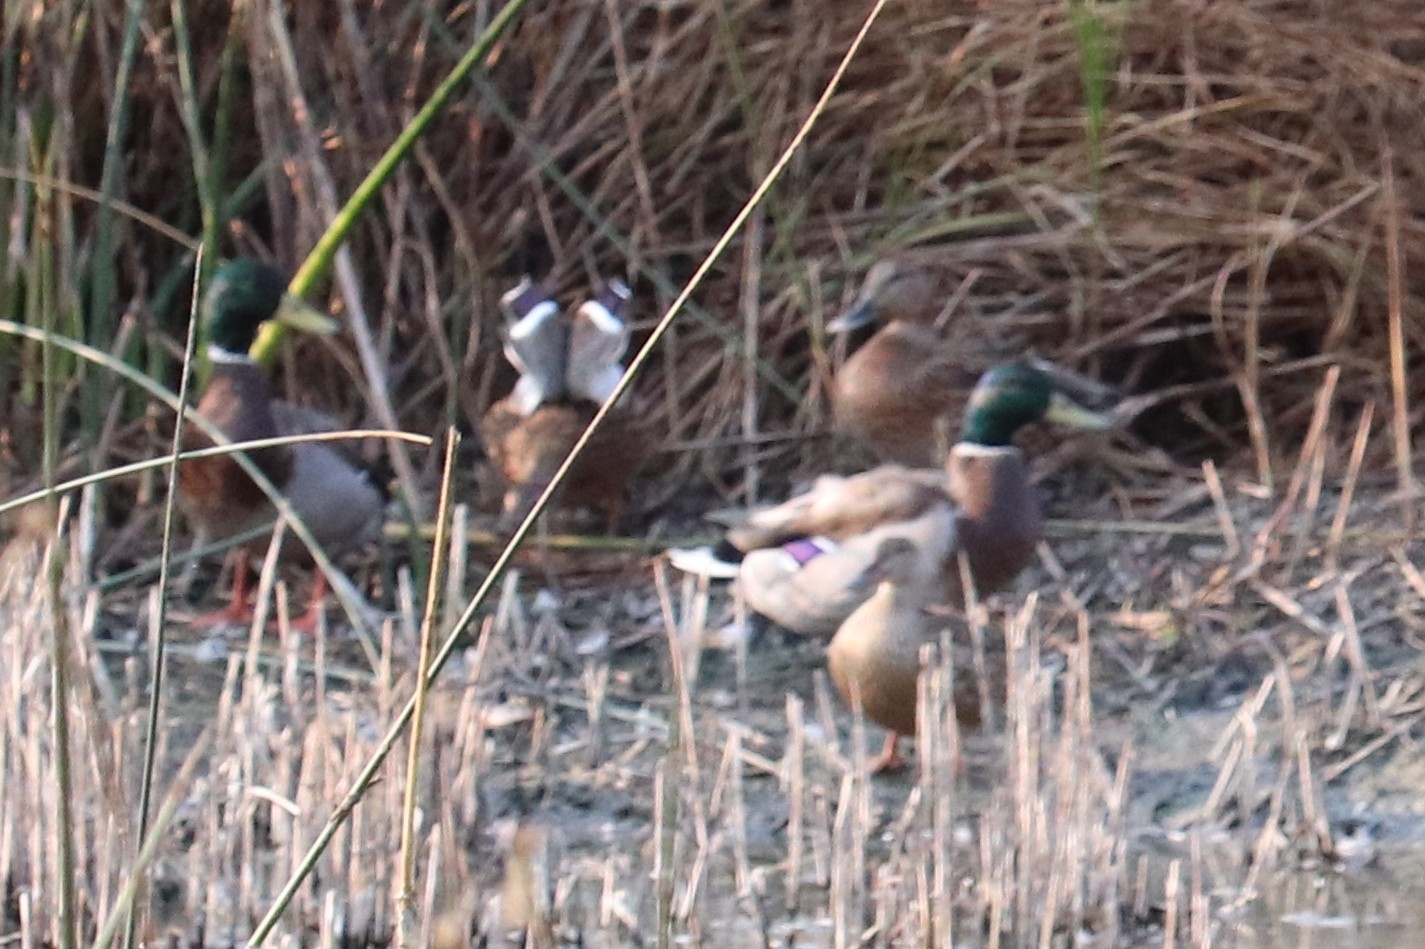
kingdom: Animalia
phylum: Chordata
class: Aves
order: Anseriformes
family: Anatidae
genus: Anas
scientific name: Anas platyrhynchos
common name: Mallard
